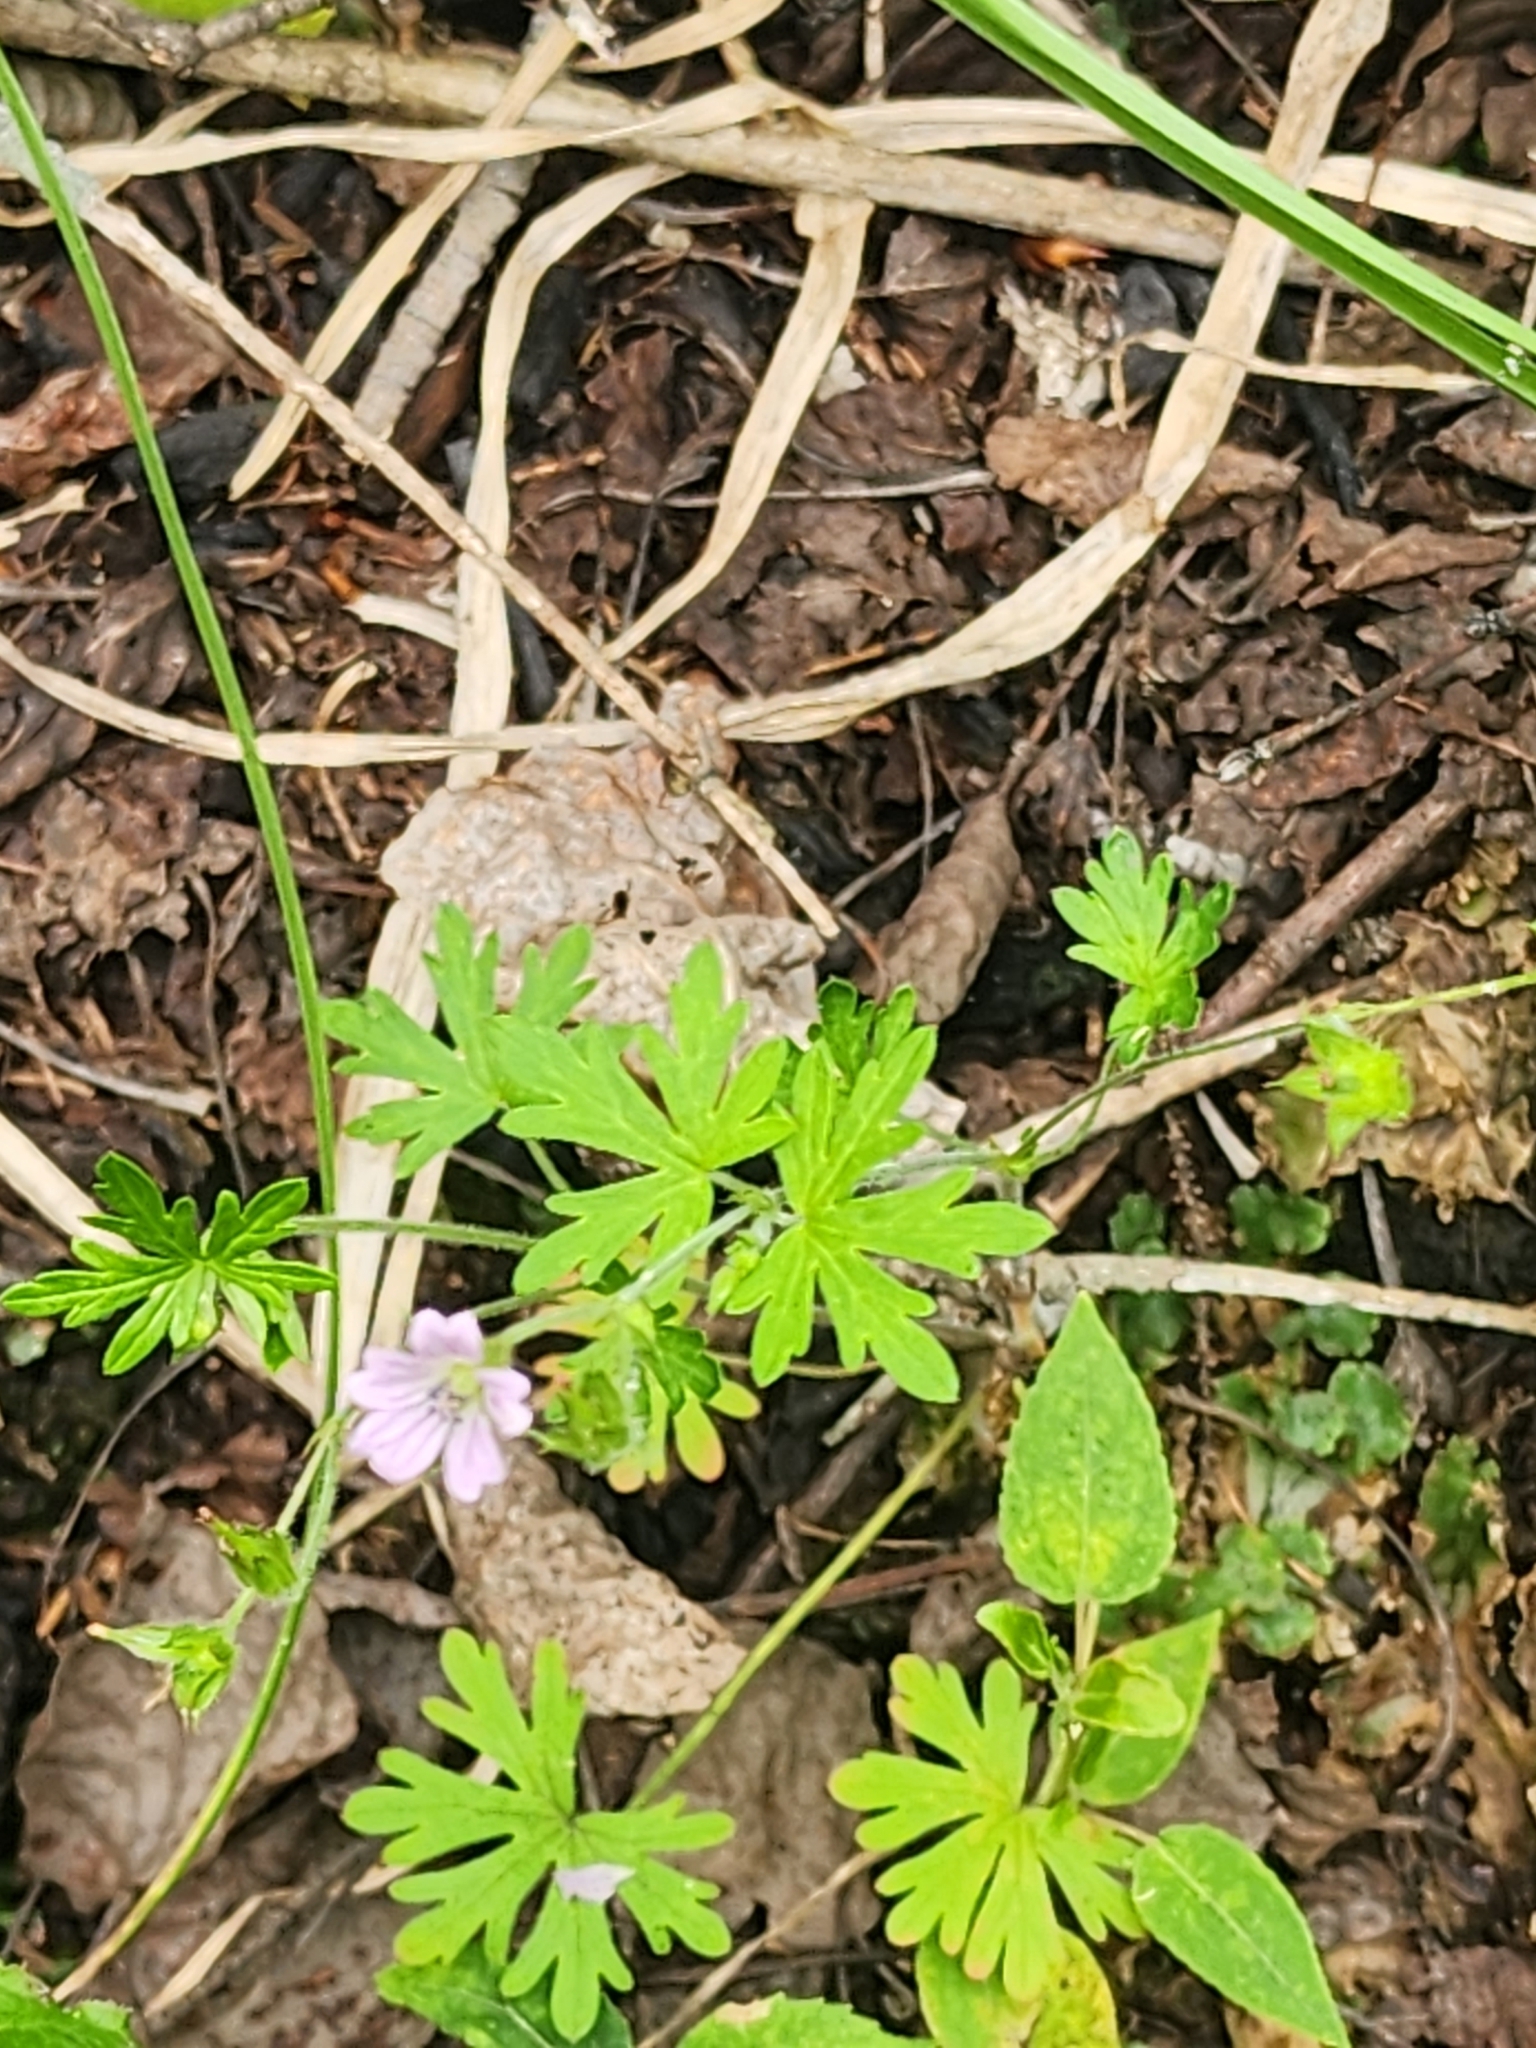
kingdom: Plantae
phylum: Tracheophyta
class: Magnoliopsida
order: Geraniales
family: Geraniaceae
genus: Geranium
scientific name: Geranium bicknellii
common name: Bicknell's cranesbill
